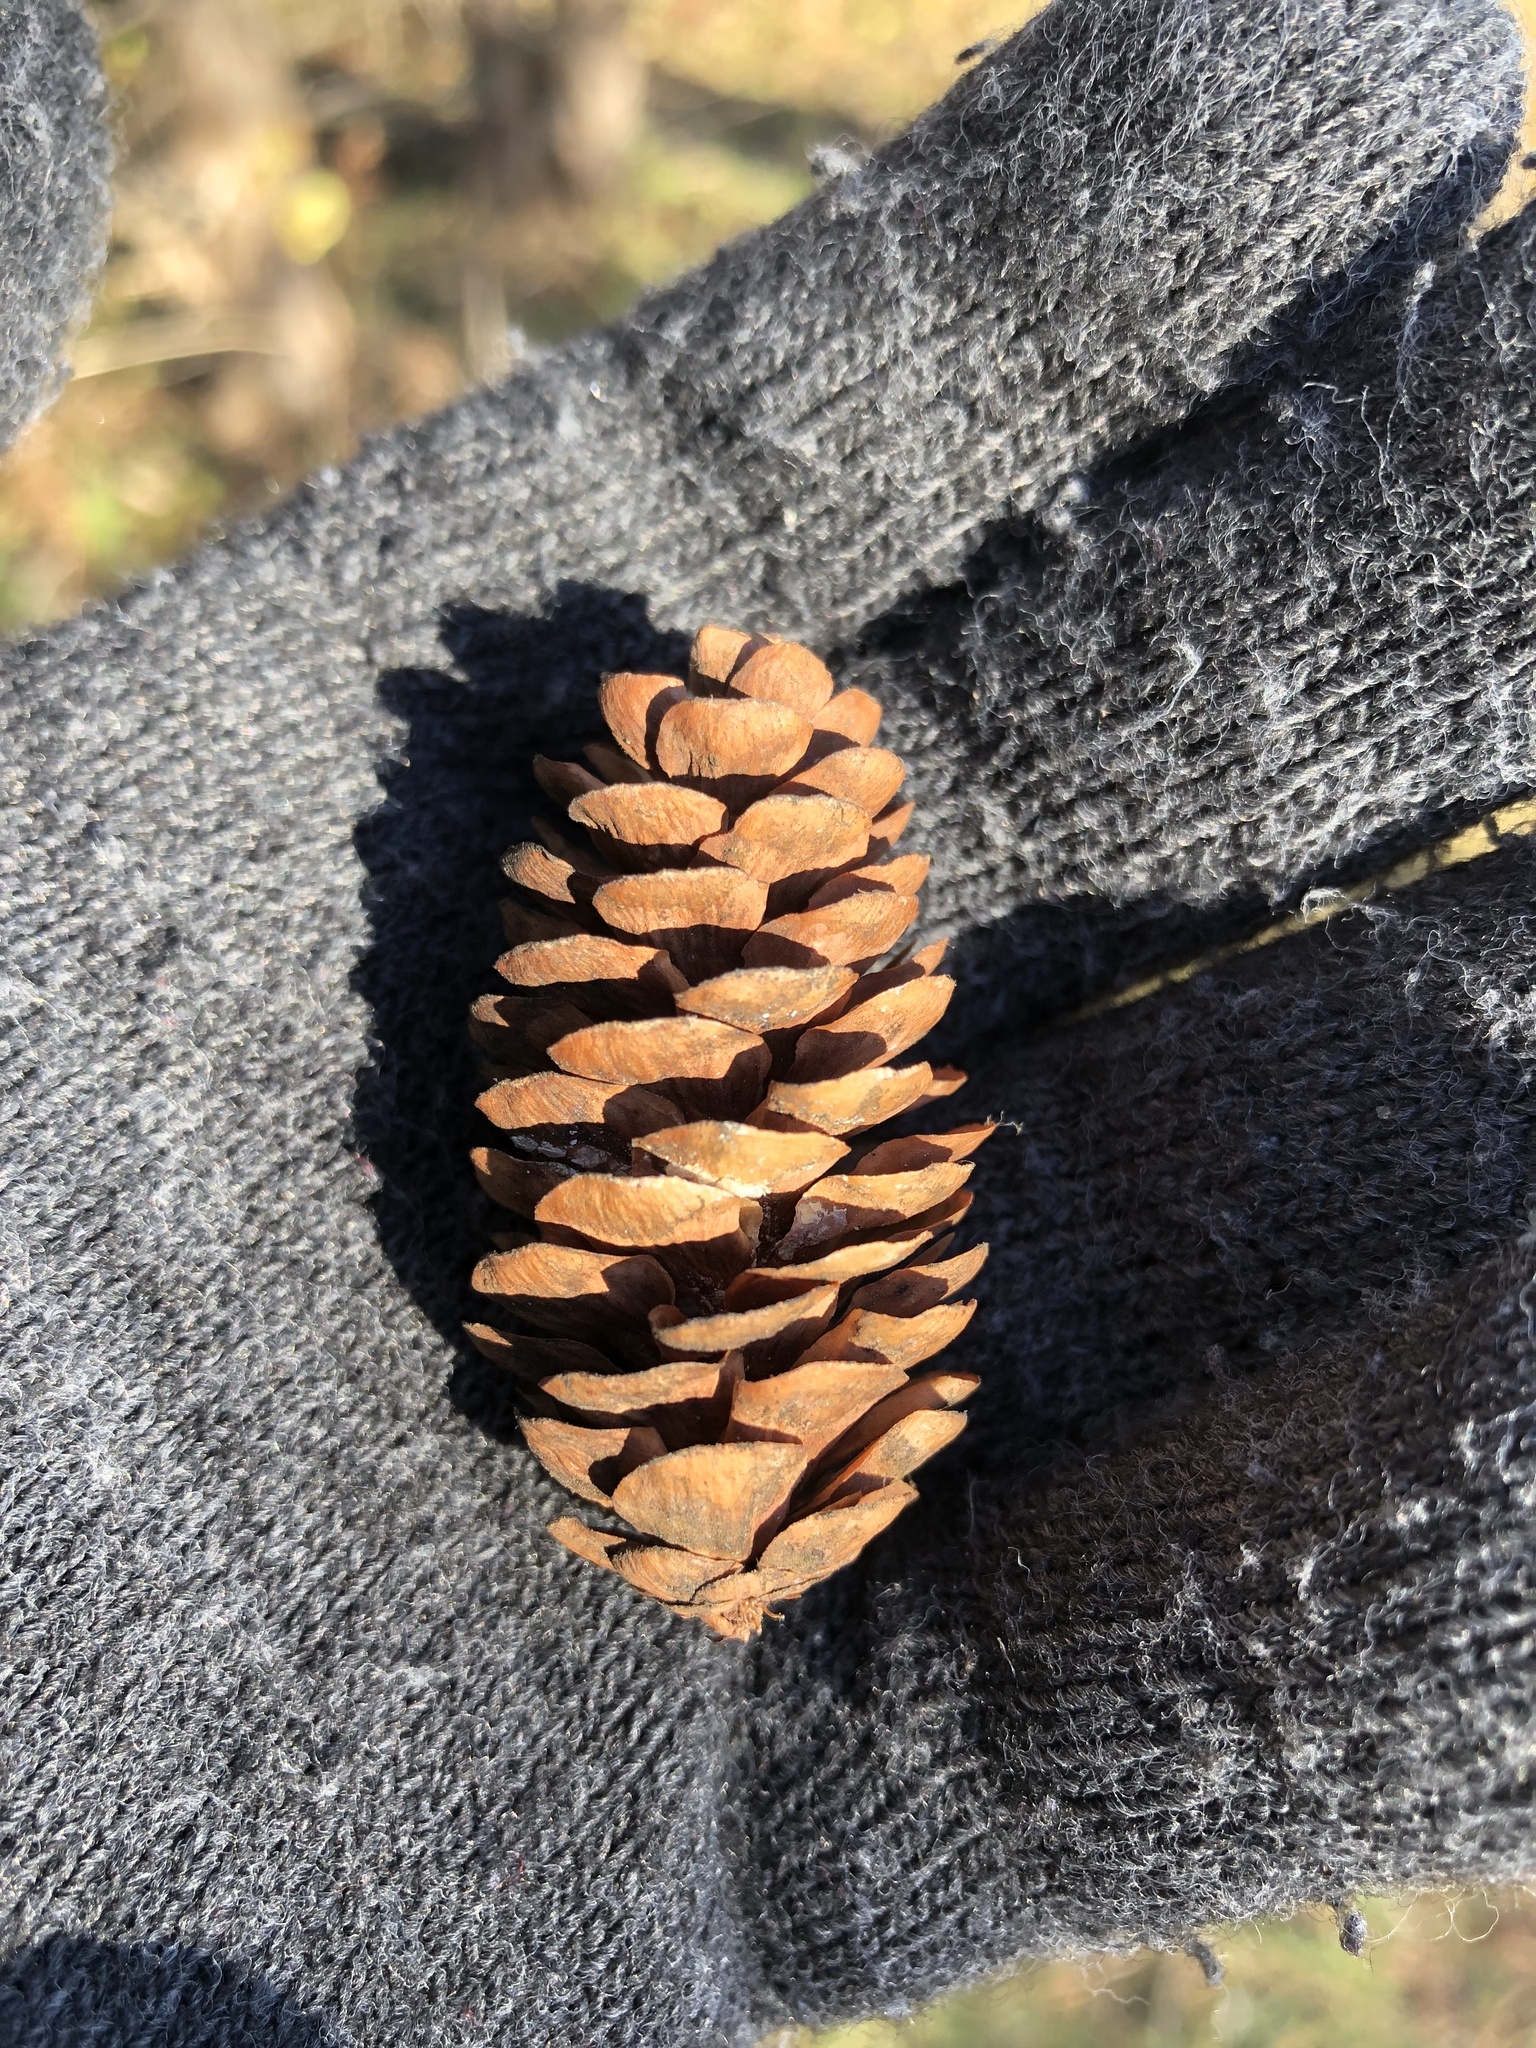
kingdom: Plantae
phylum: Tracheophyta
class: Pinopsida
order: Pinales
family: Pinaceae
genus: Picea
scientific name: Picea glauca
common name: White spruce
